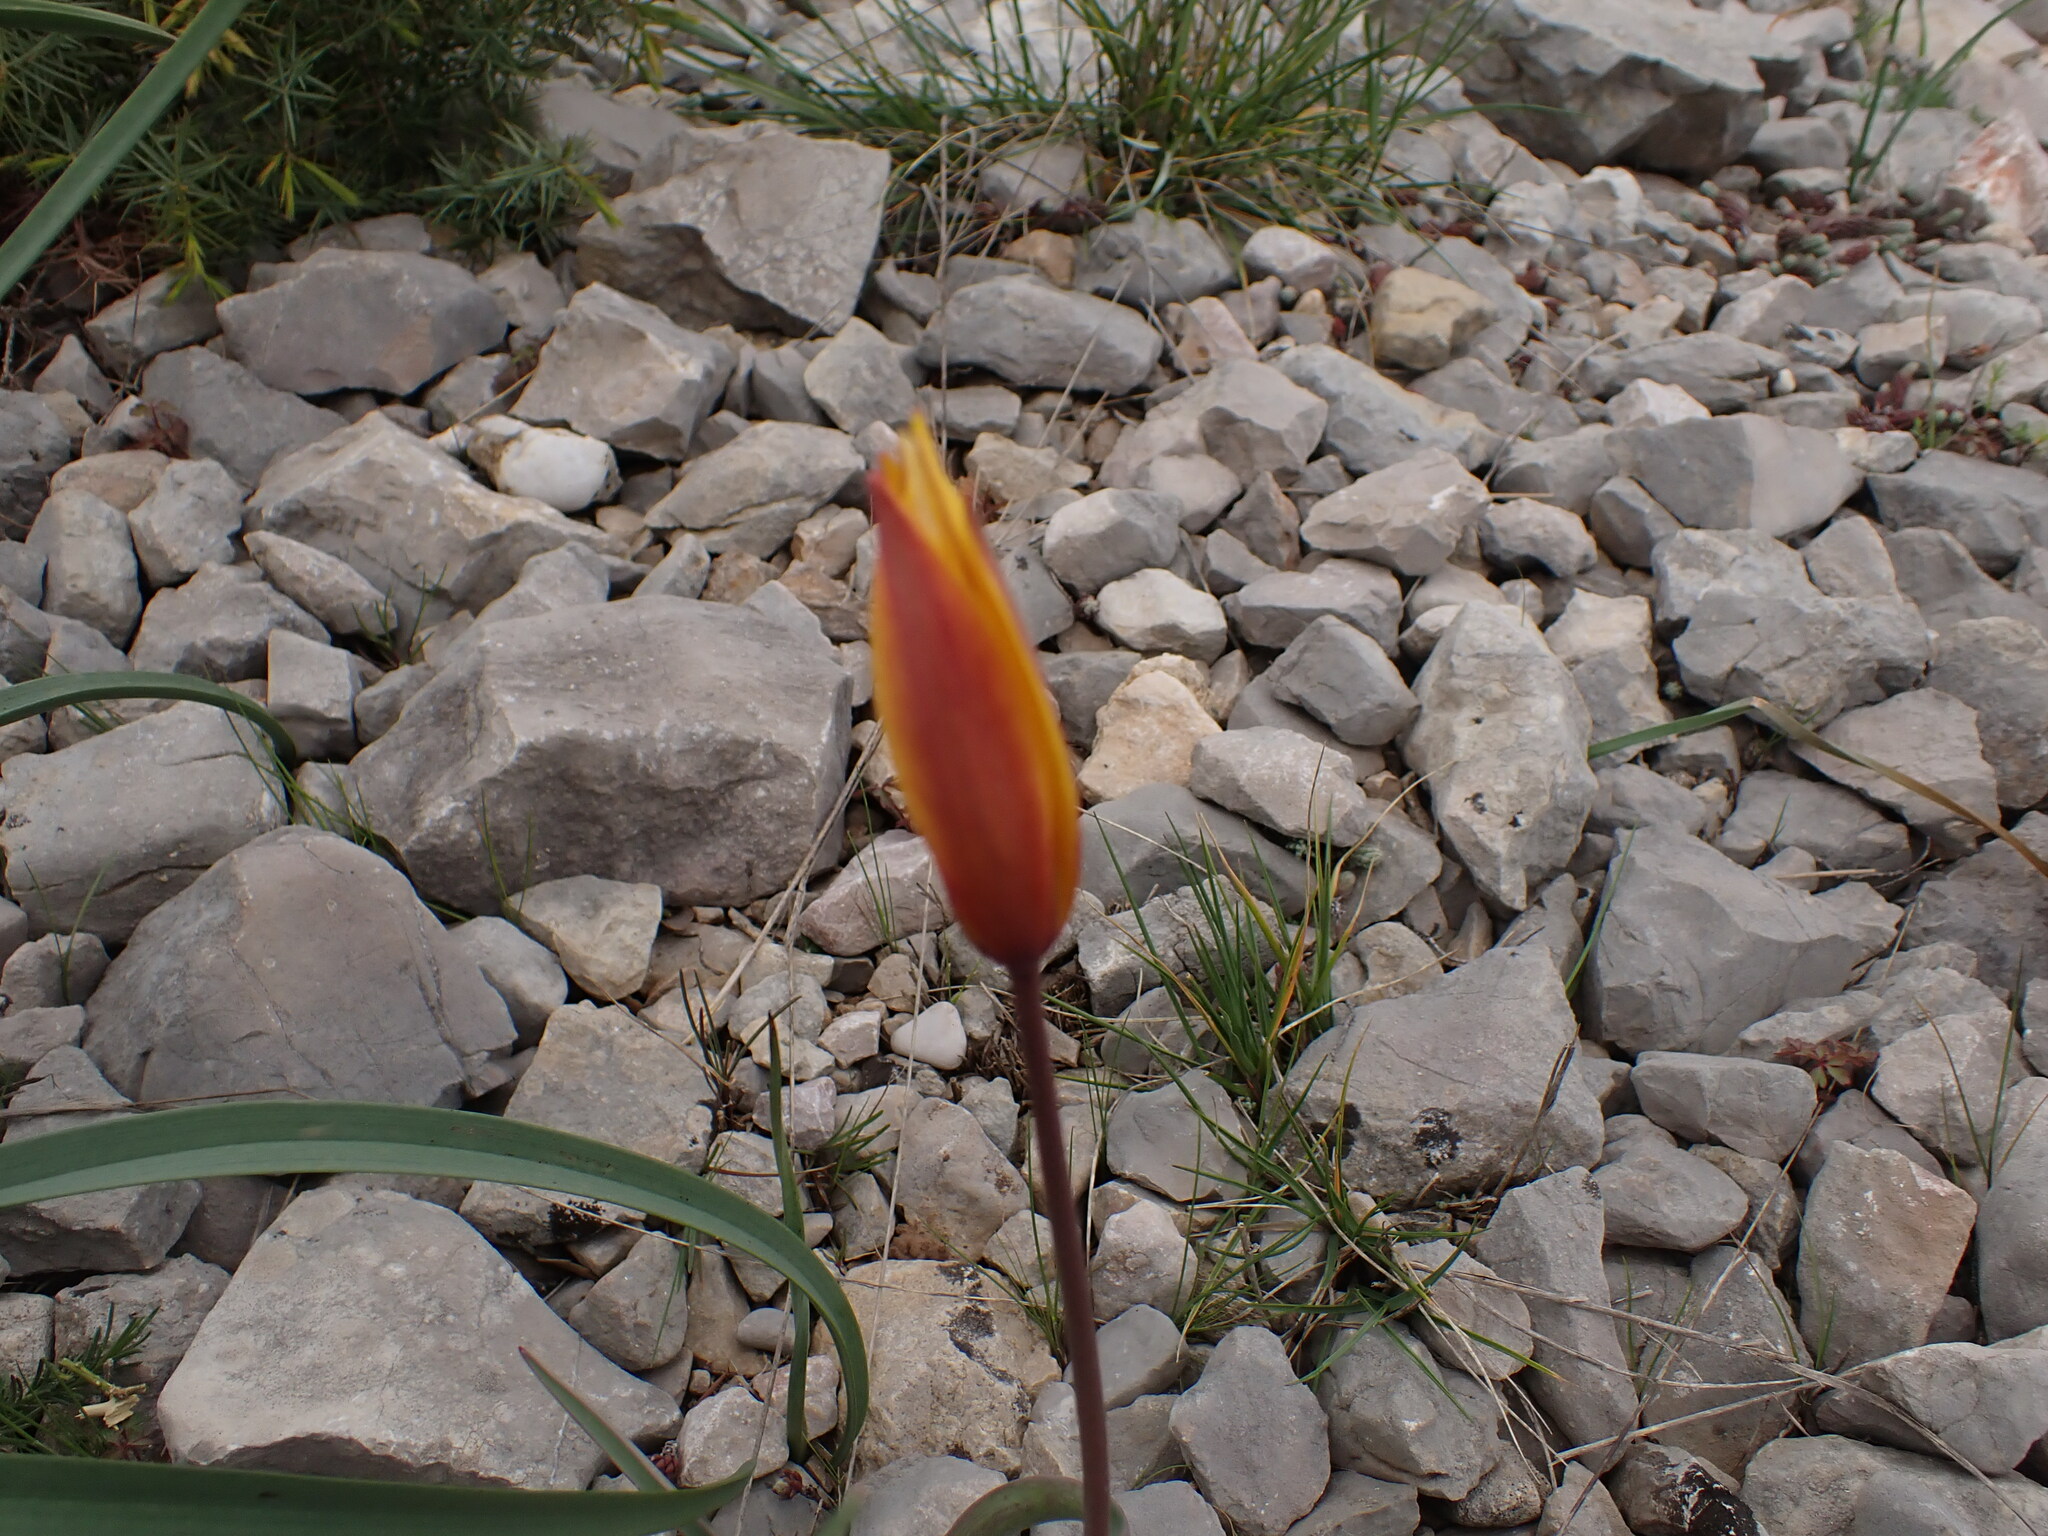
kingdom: Plantae
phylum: Tracheophyta
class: Liliopsida
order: Liliales
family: Liliaceae
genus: Tulipa
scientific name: Tulipa sylvestris
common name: Wild tulip
